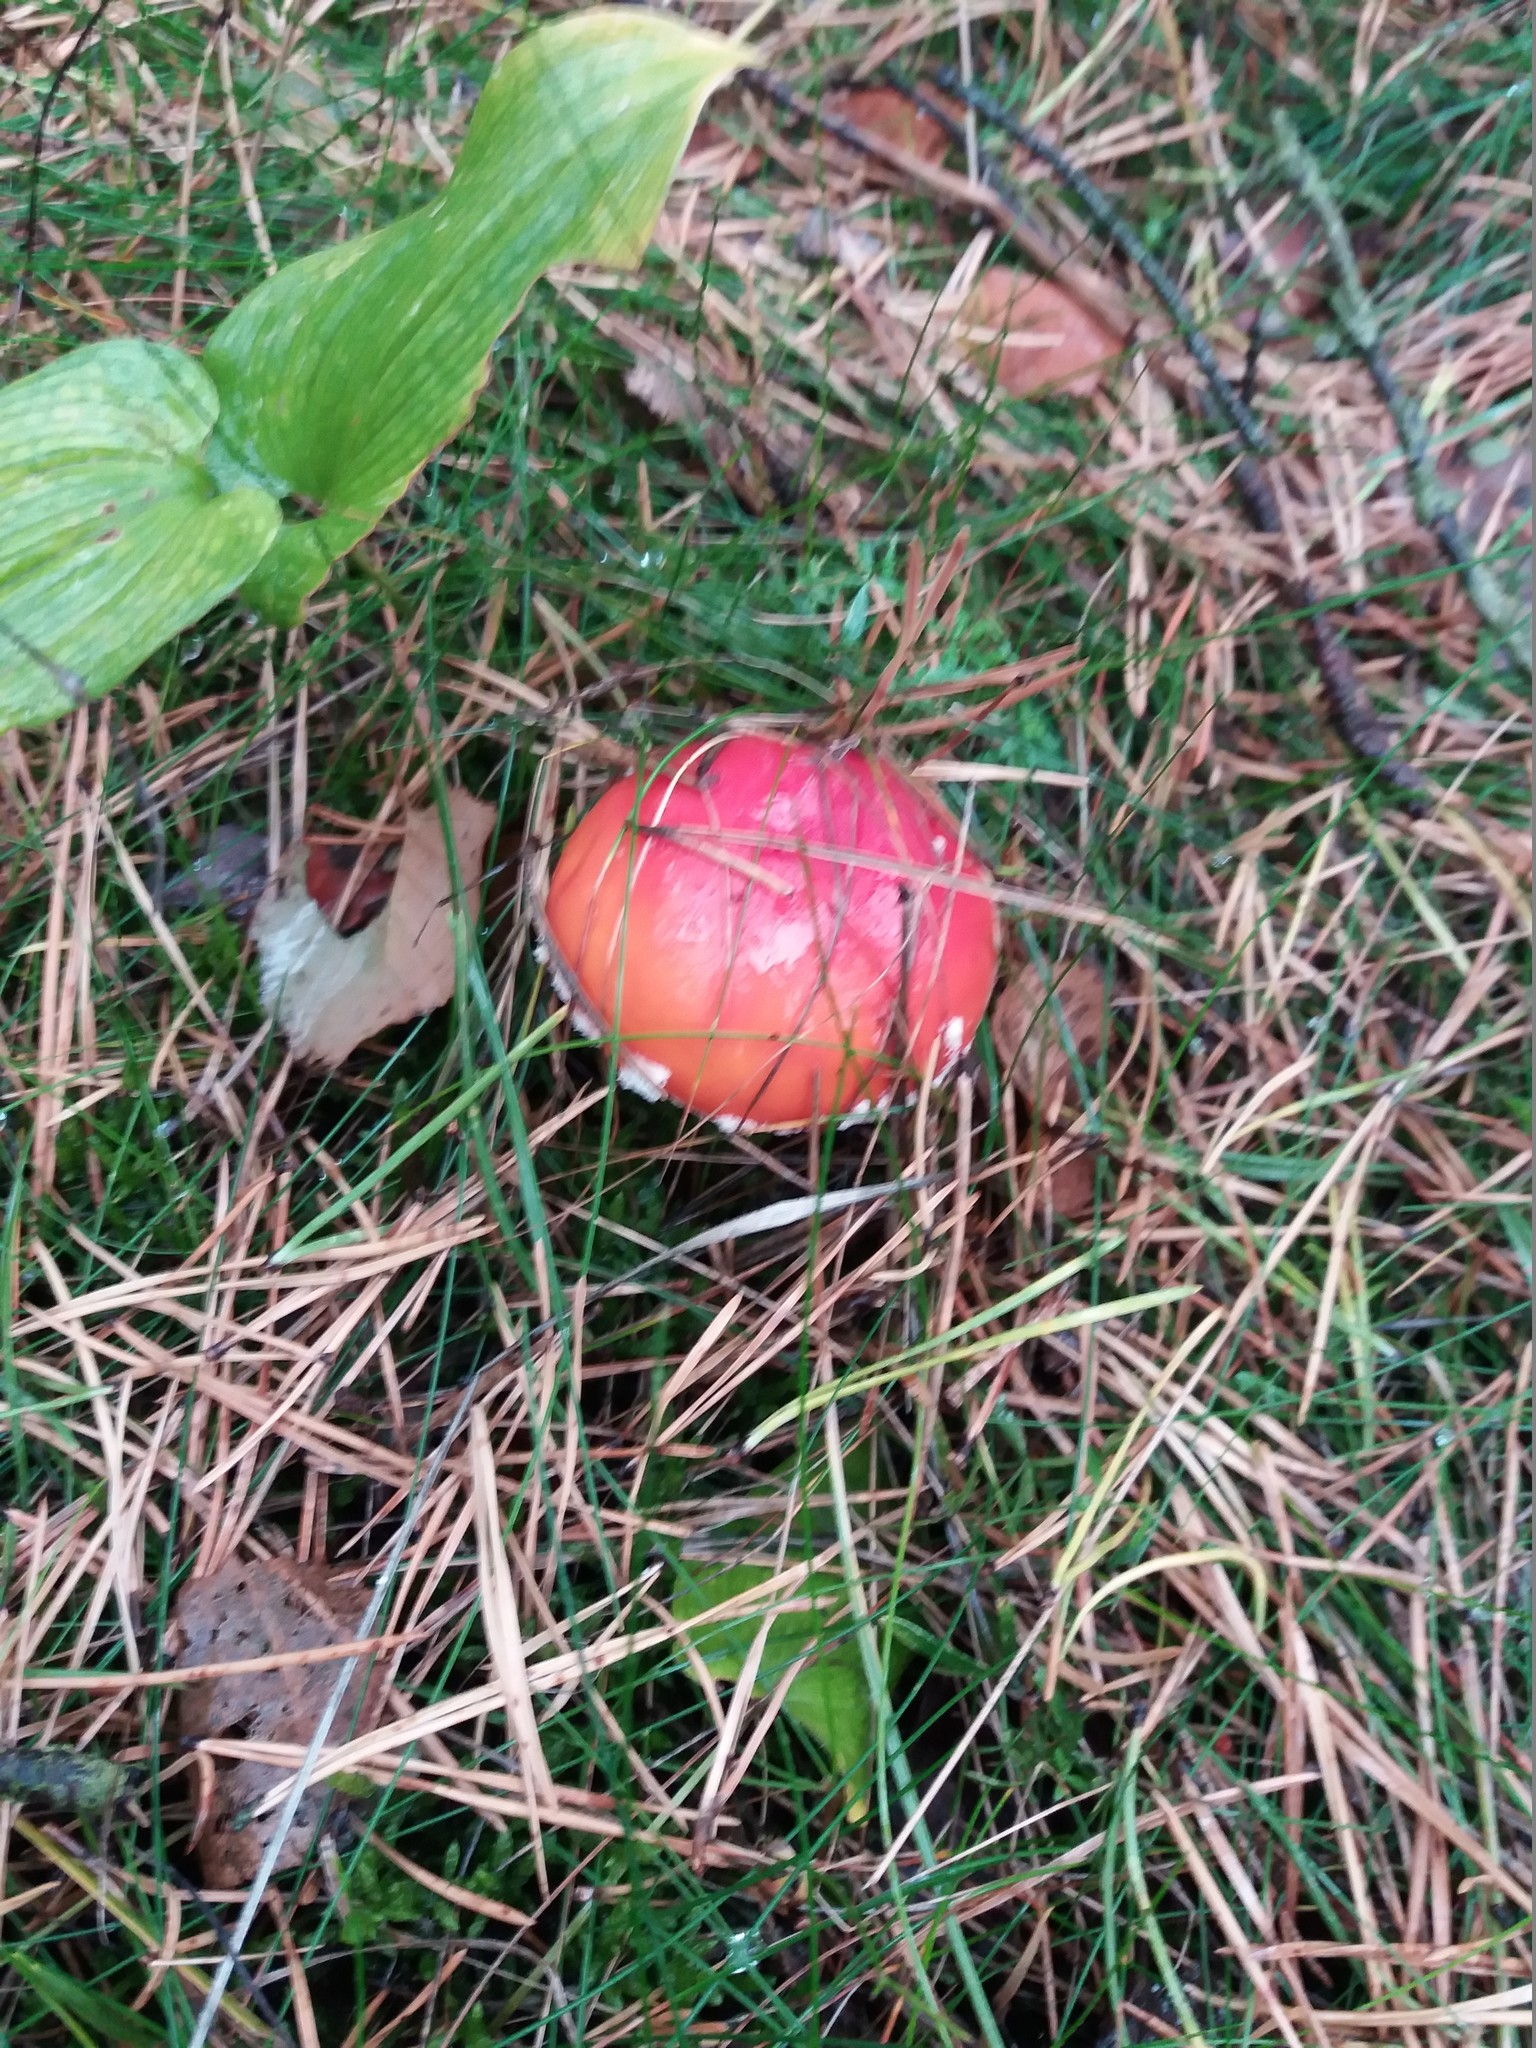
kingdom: Fungi
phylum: Basidiomycota
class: Agaricomycetes
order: Agaricales
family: Amanitaceae
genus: Amanita
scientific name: Amanita muscaria
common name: Fly agaric
